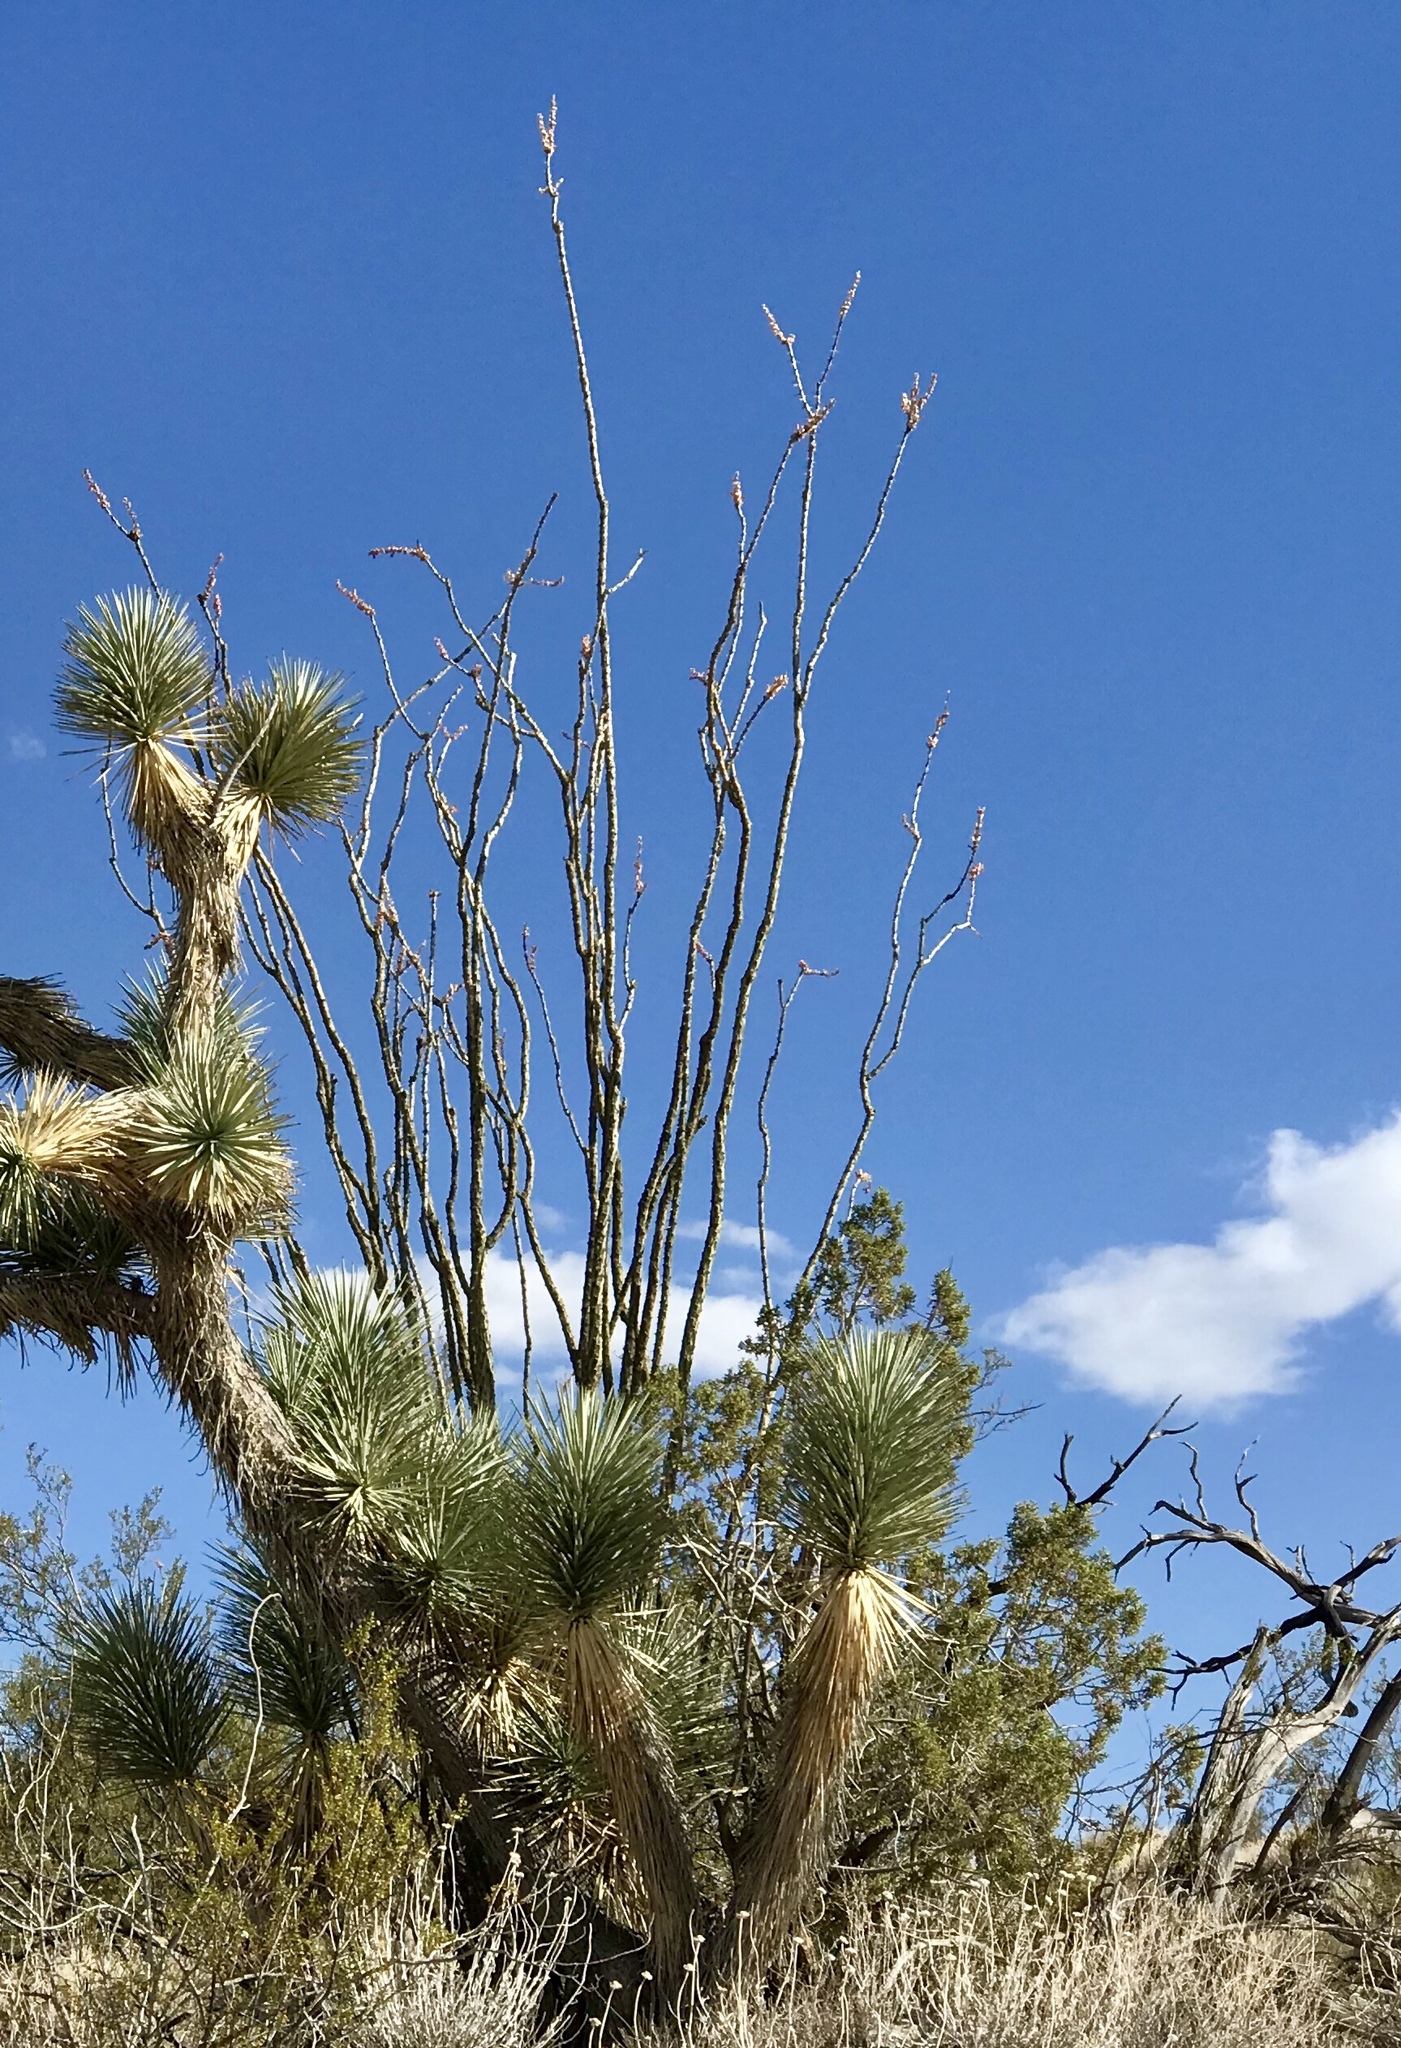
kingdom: Plantae
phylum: Tracheophyta
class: Magnoliopsida
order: Ericales
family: Fouquieriaceae
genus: Fouquieria
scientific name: Fouquieria splendens
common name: Vine-cactus
